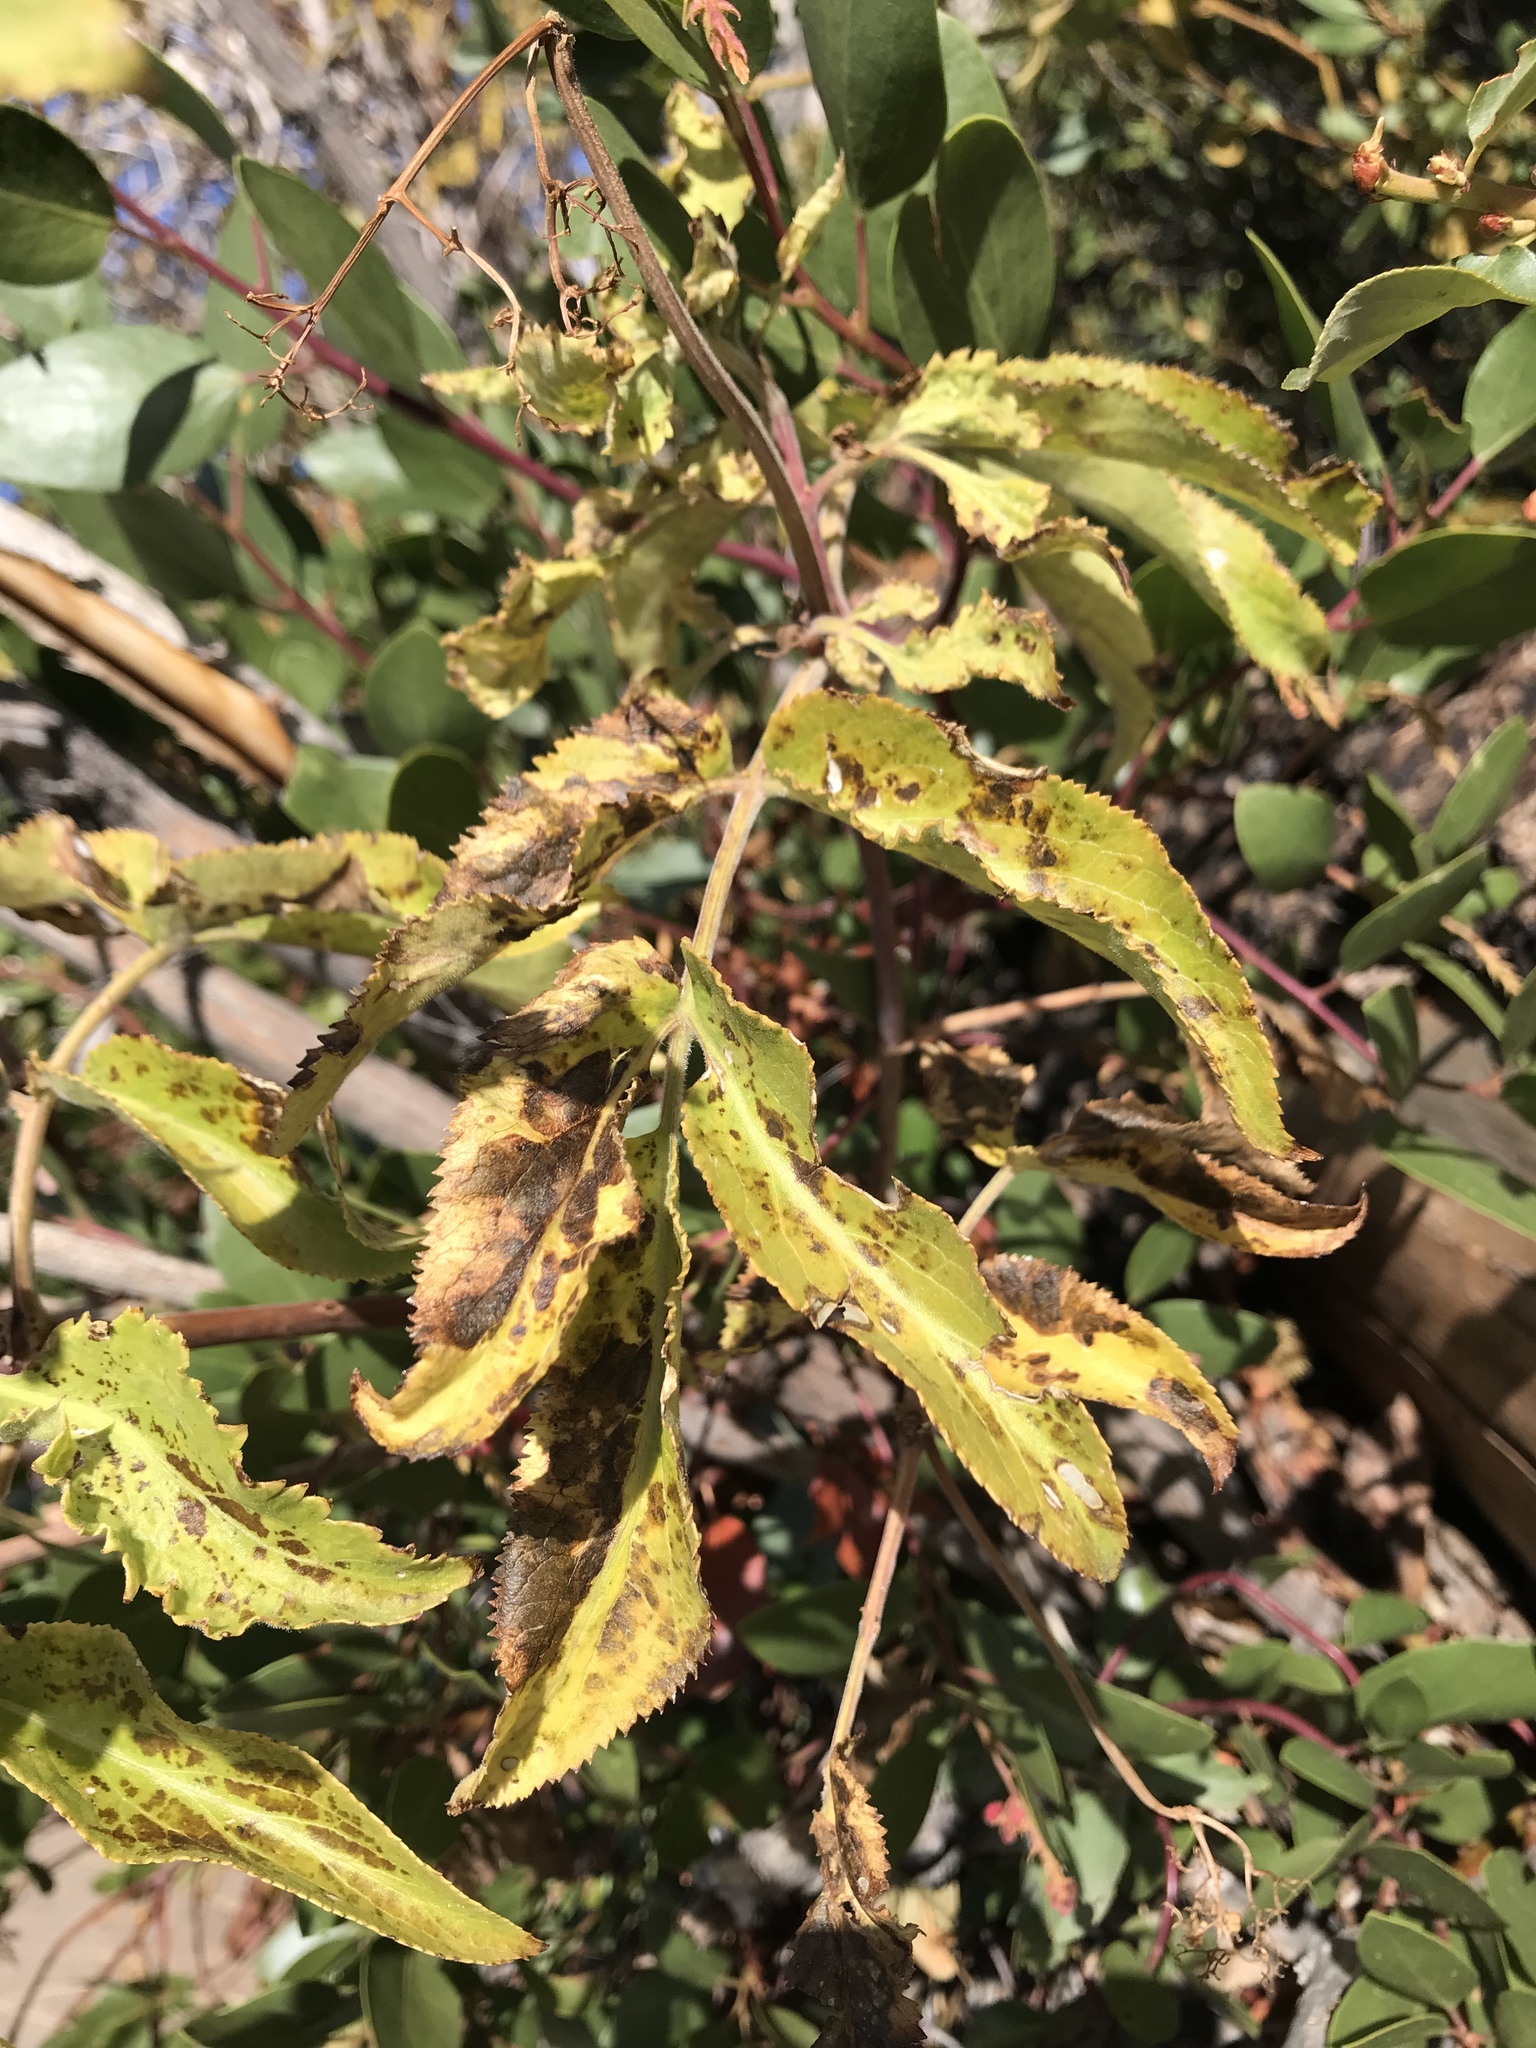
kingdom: Plantae
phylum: Tracheophyta
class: Magnoliopsida
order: Dipsacales
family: Viburnaceae
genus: Sambucus
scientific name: Sambucus cerulea
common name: Blue elder
